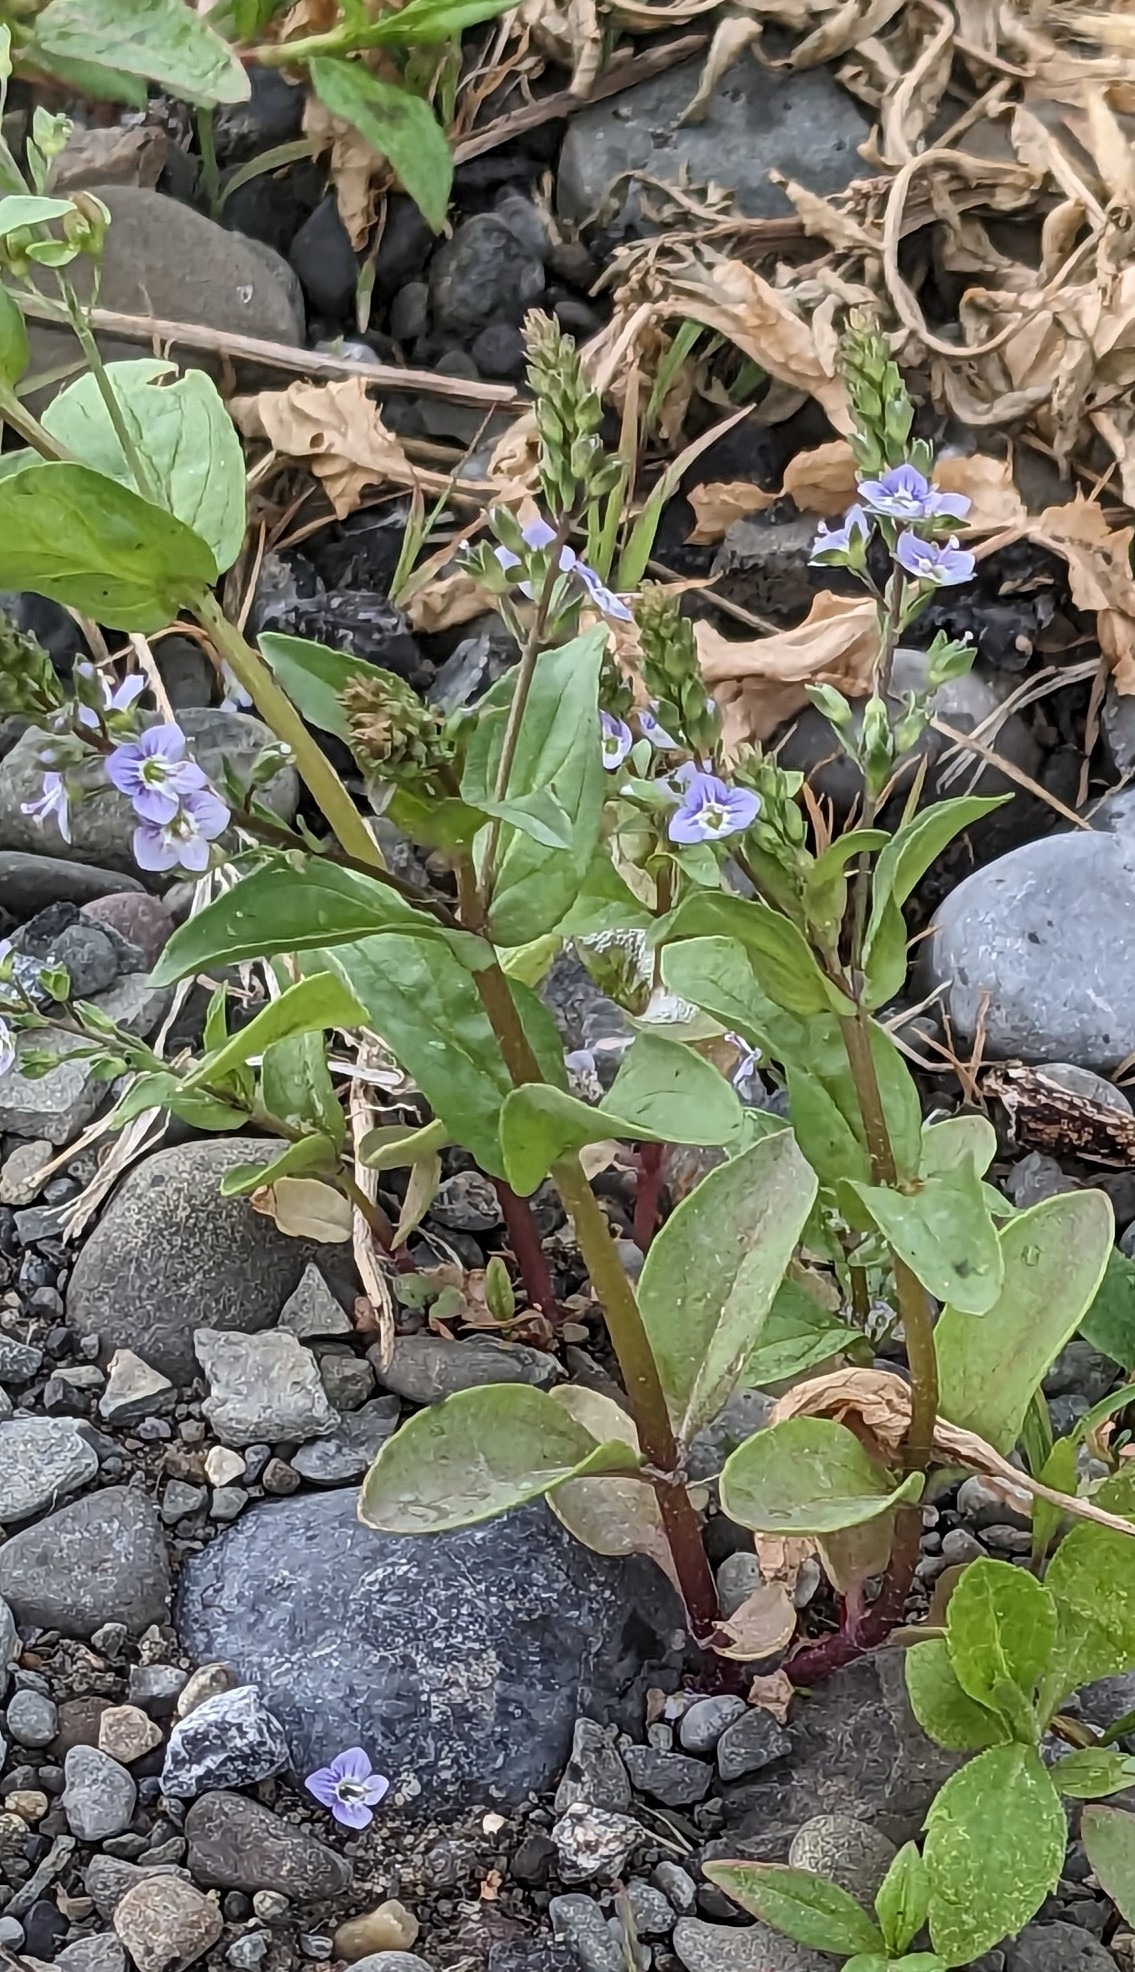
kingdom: Plantae
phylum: Tracheophyta
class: Magnoliopsida
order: Lamiales
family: Plantaginaceae
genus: Veronica
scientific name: Veronica anagallis-aquatica
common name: Water speedwell
